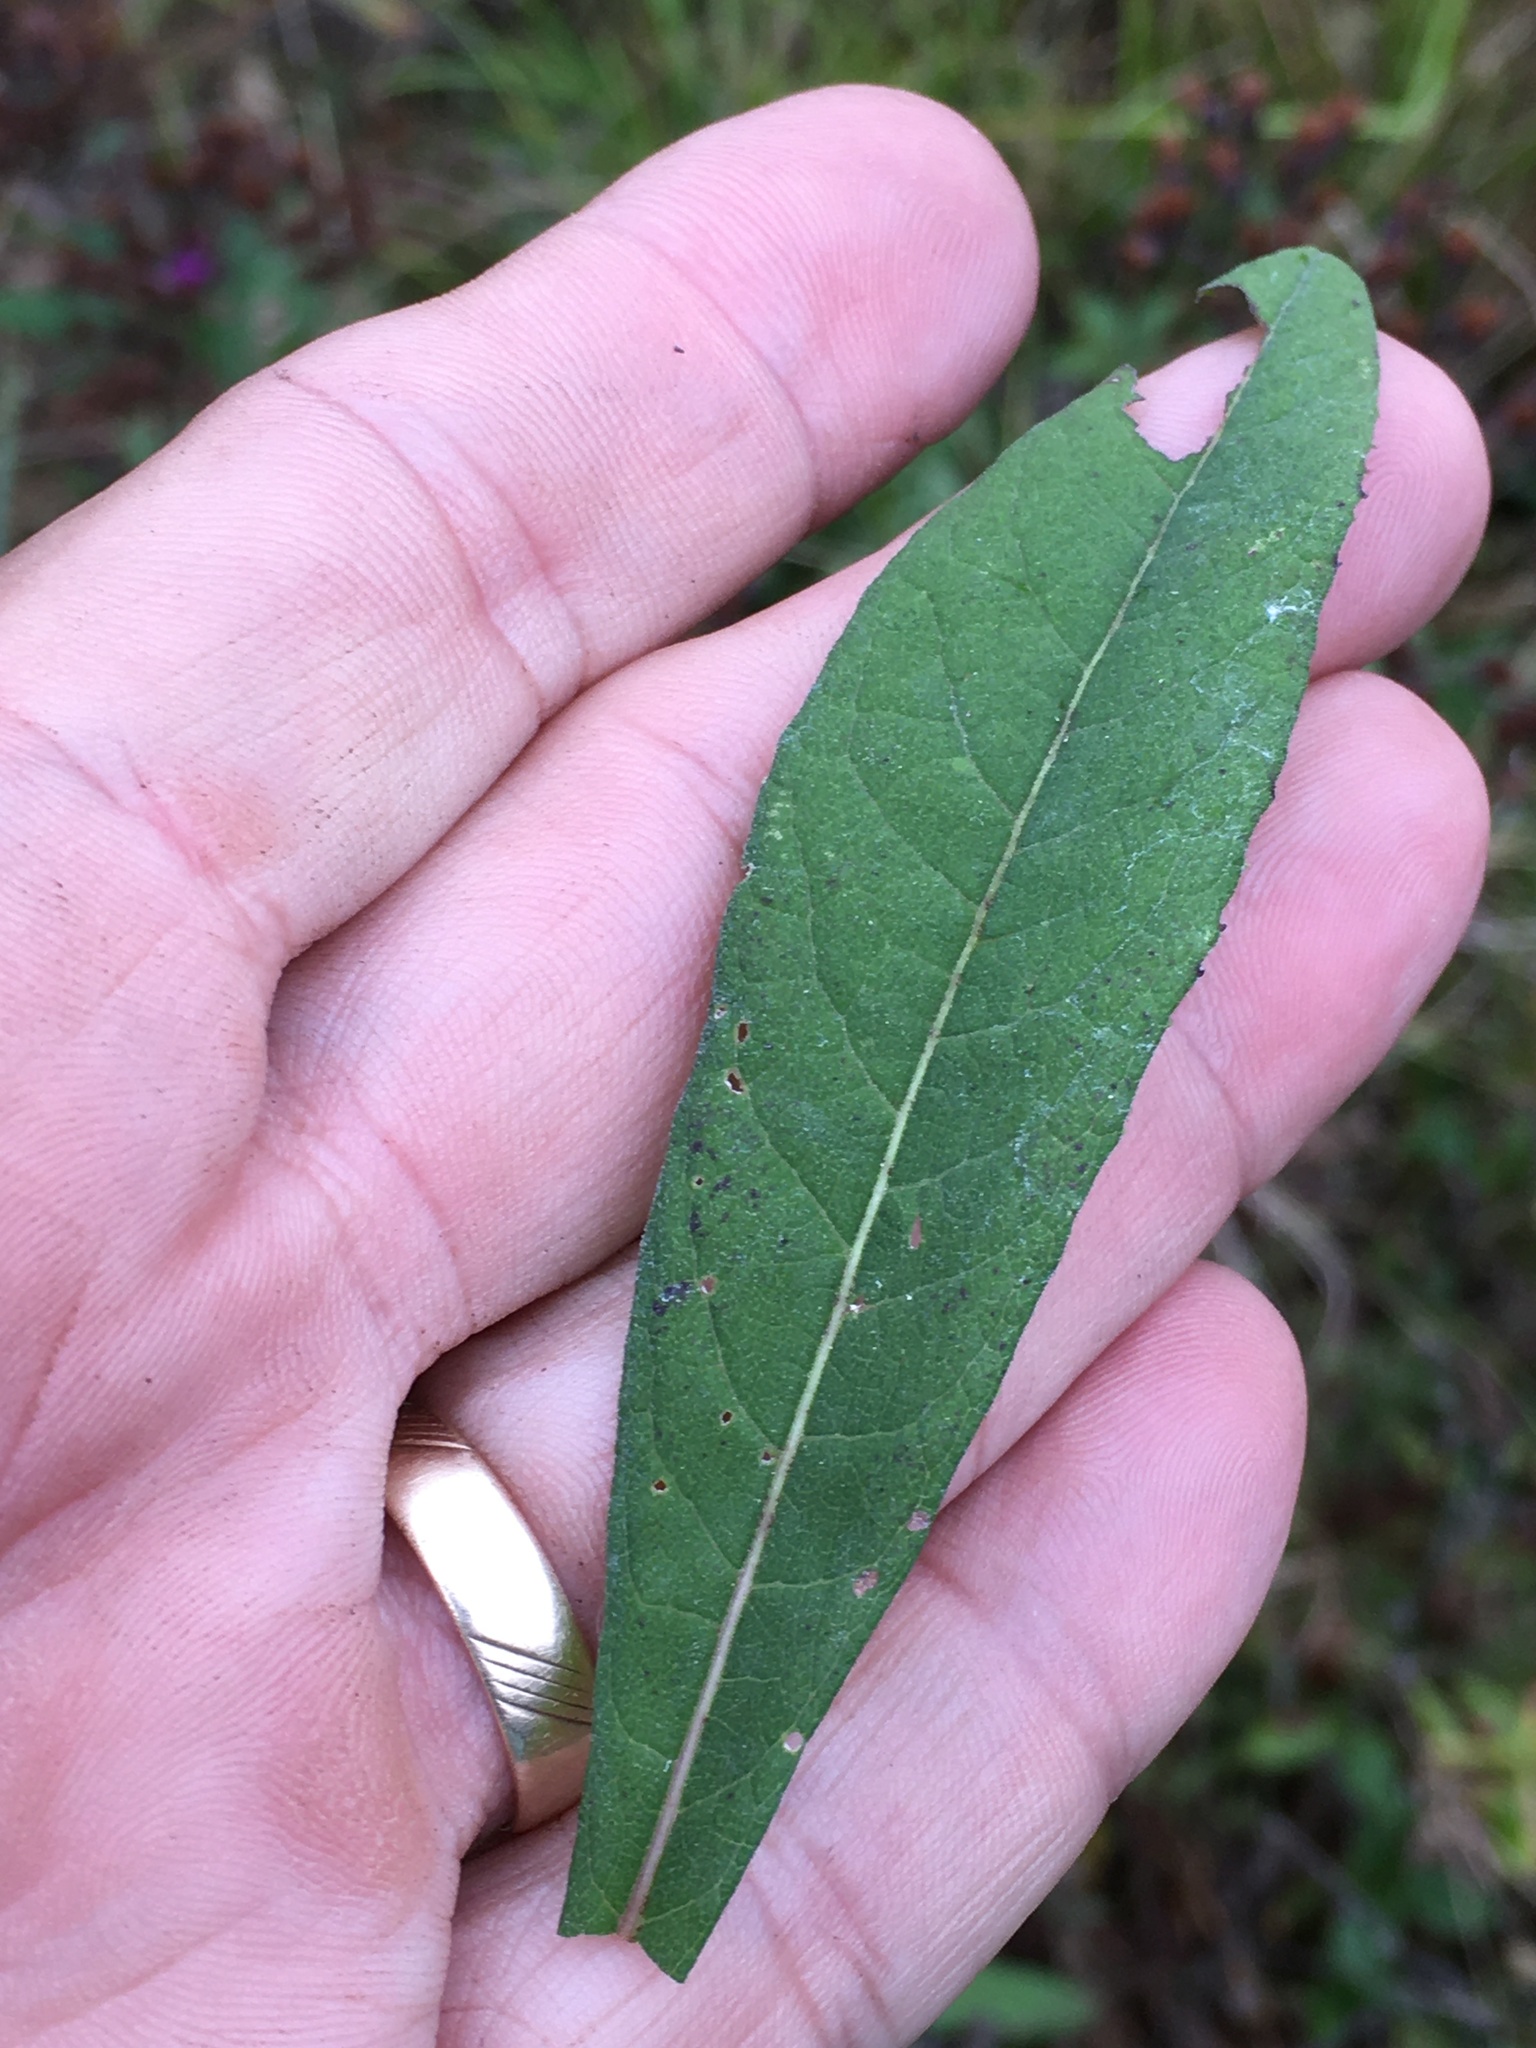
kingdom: Plantae
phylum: Tracheophyta
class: Magnoliopsida
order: Asterales
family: Asteraceae
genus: Vernonia
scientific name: Vernonia gigantea
